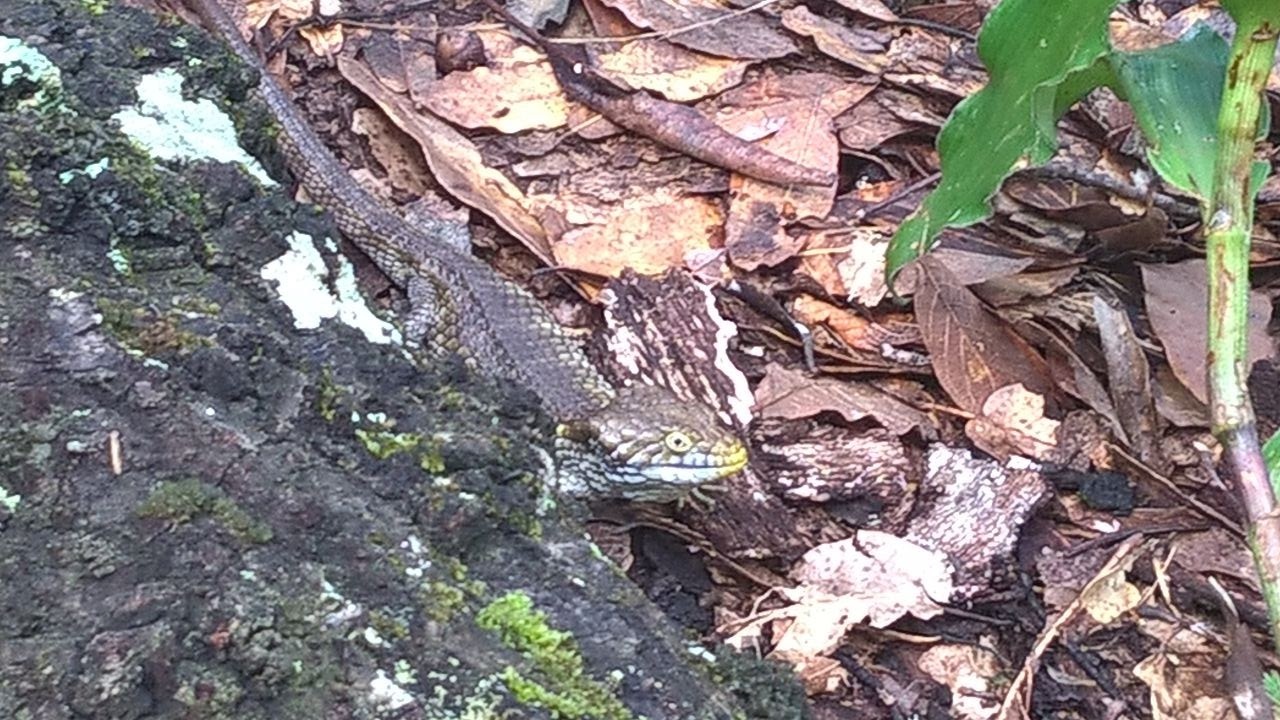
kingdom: Animalia
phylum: Chordata
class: Squamata
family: Anguidae
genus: Abronia
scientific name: Abronia oaxacae
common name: Oaxaca arboreal alligator lizard
